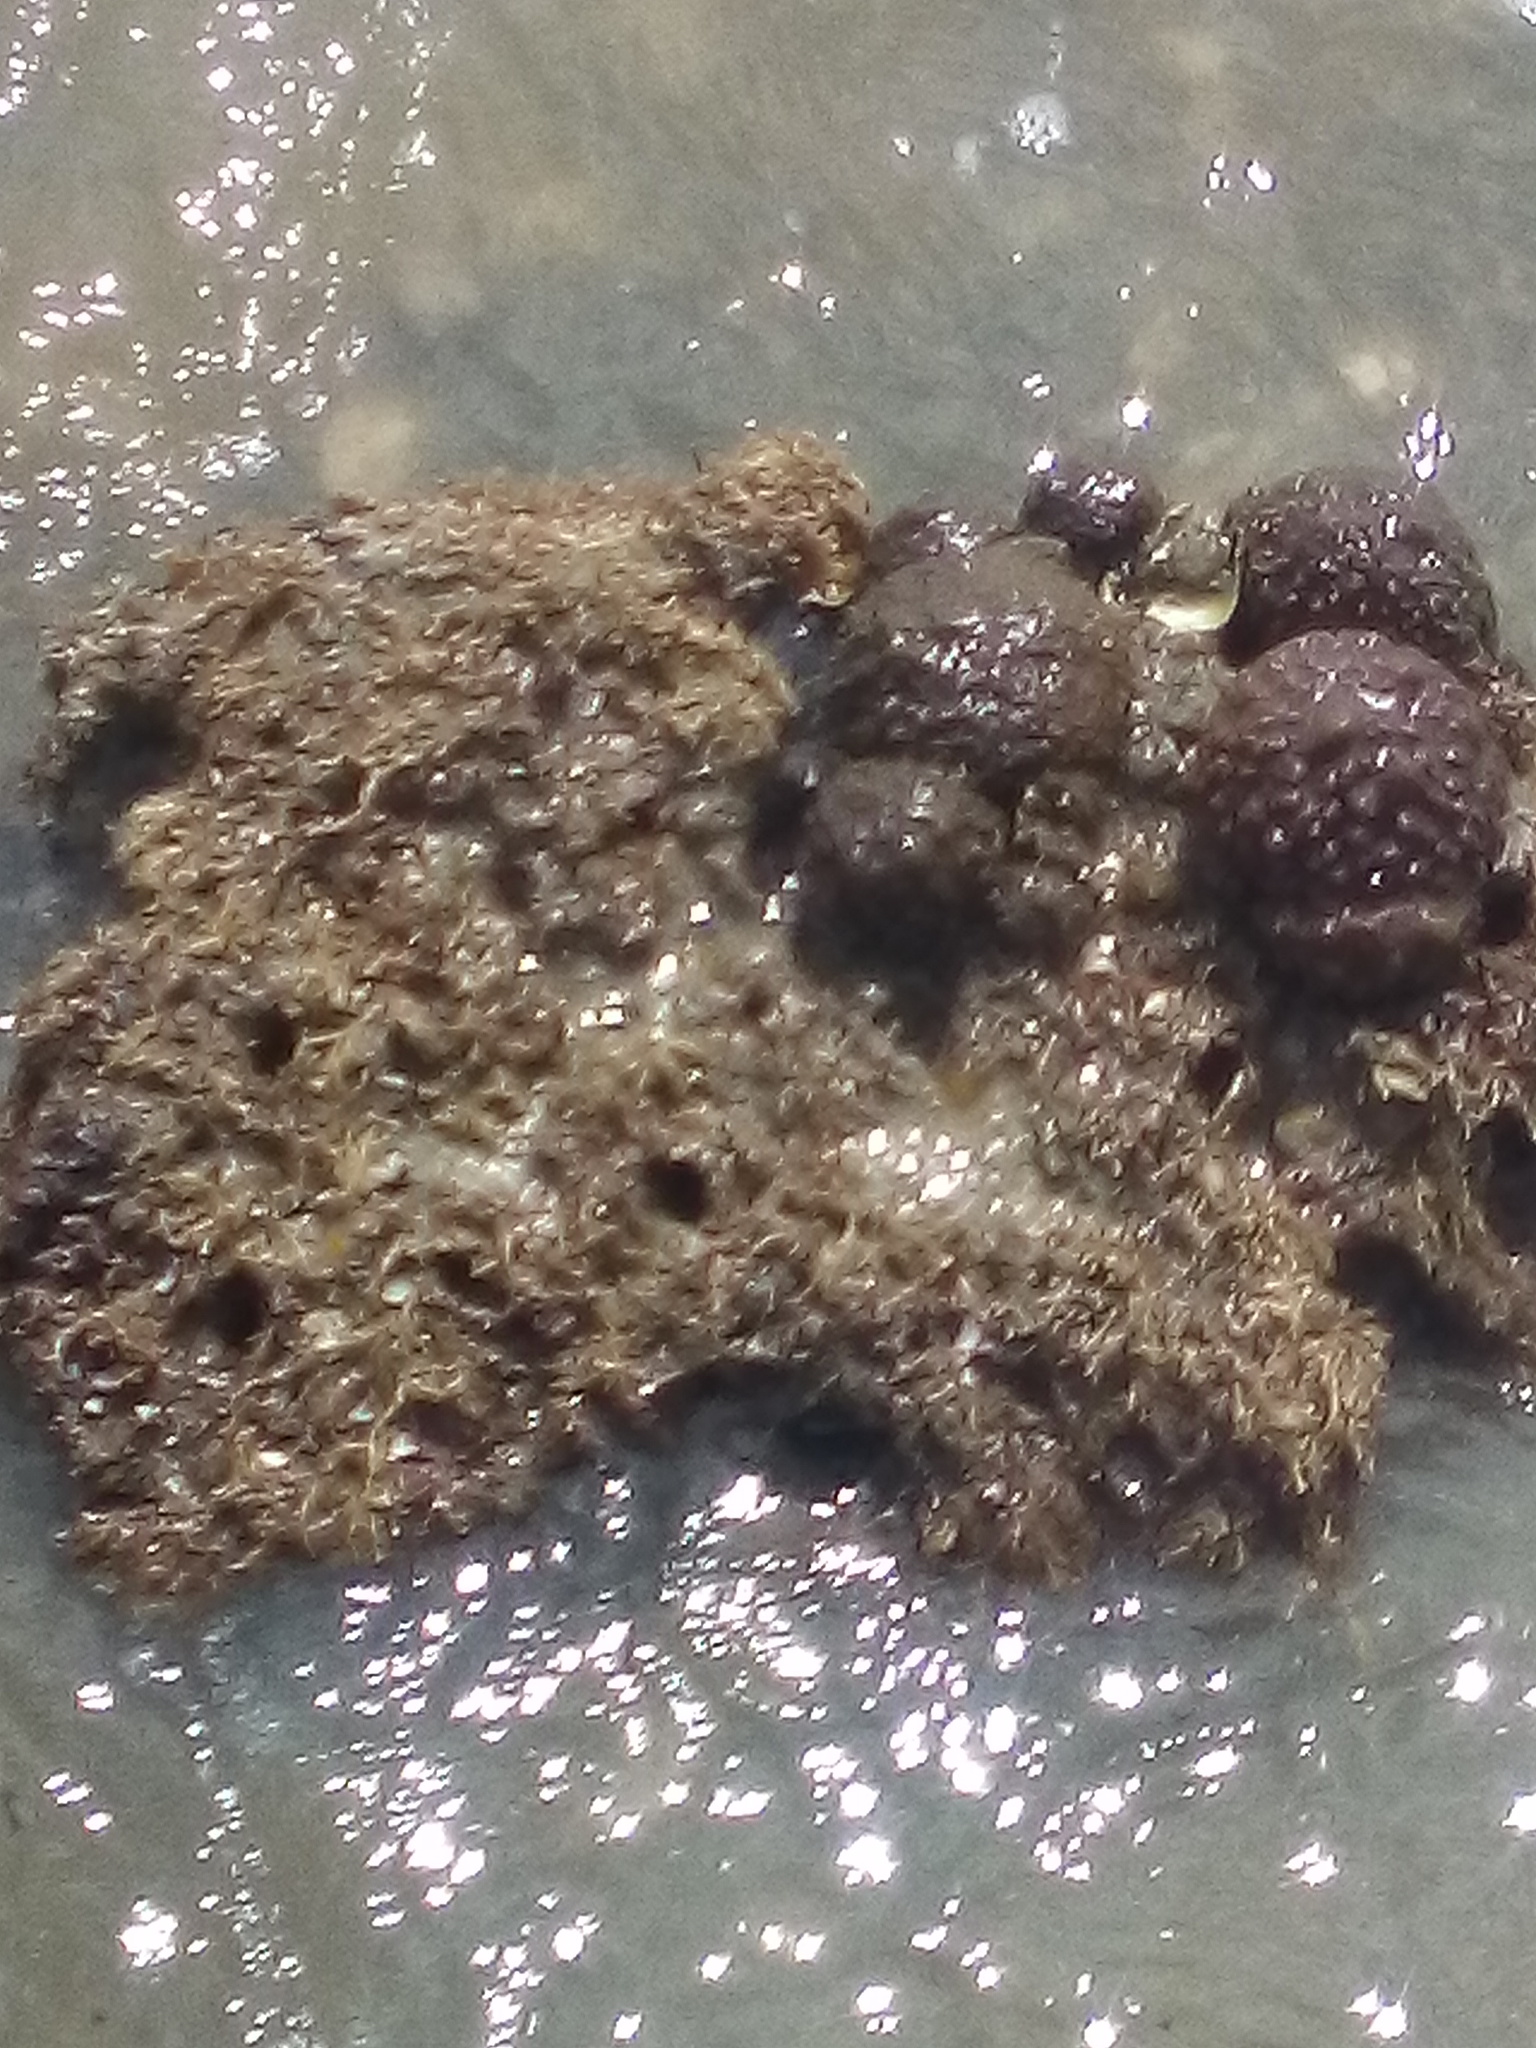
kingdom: Animalia
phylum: Porifera
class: Demospongiae
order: Suberitida
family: Suberitidae
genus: Aaptos
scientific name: Aaptos tenta
